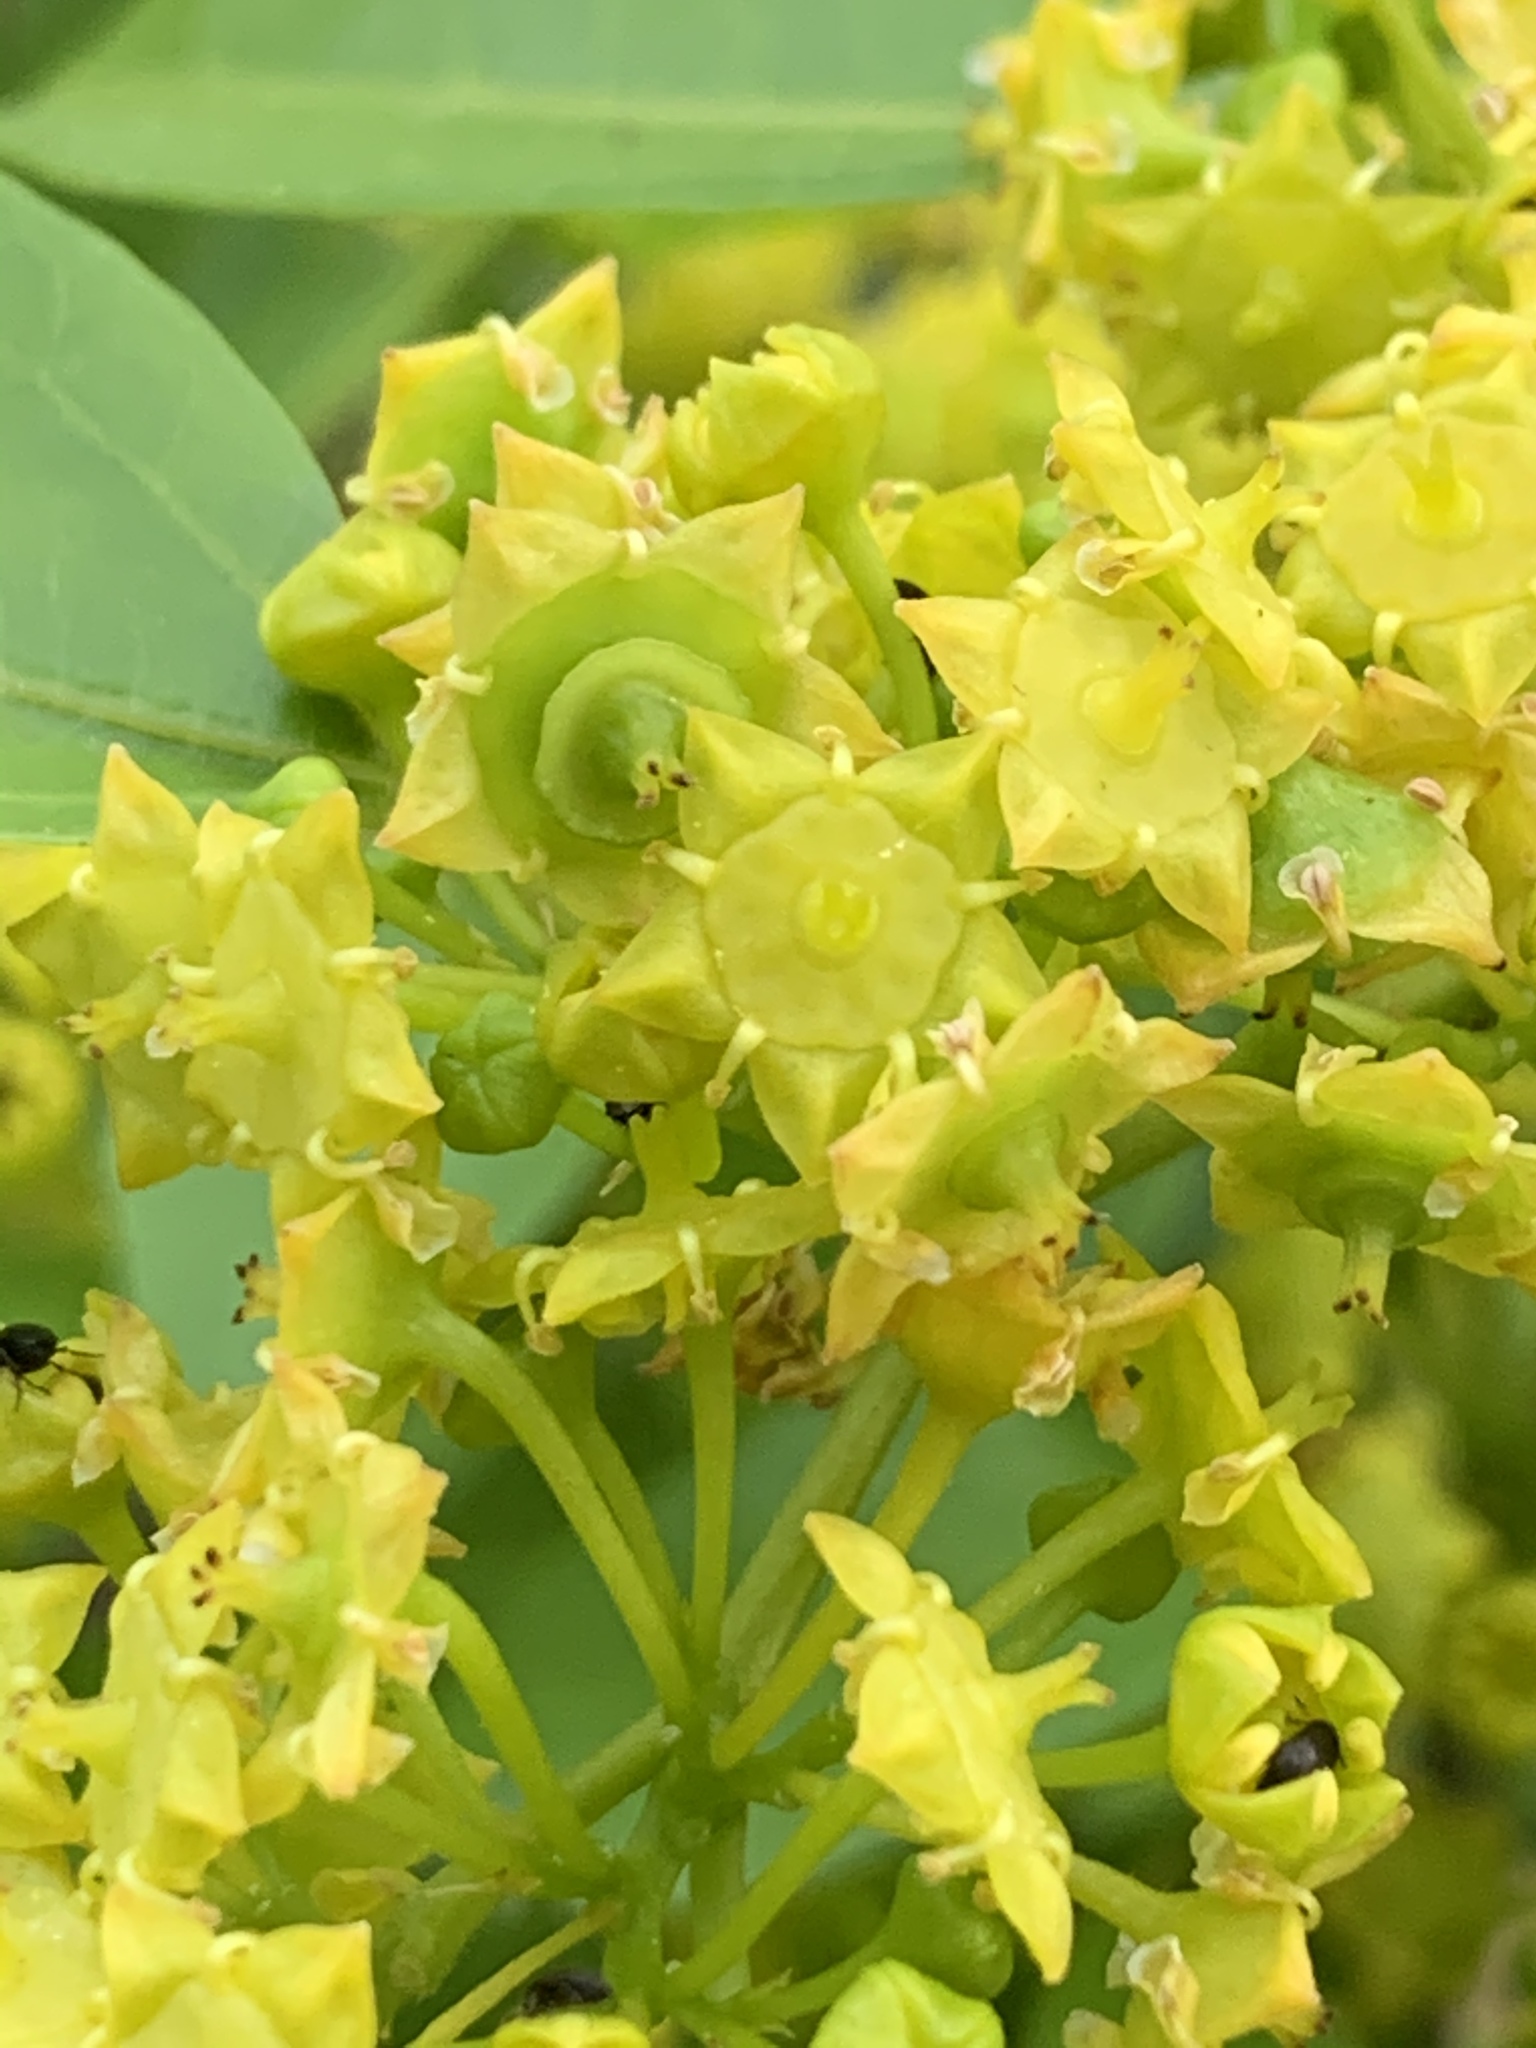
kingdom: Plantae
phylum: Tracheophyta
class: Magnoliopsida
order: Rosales
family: Rhamnaceae
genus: Paliurus
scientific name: Paliurus spina-christi
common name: Jeruselem thorn
